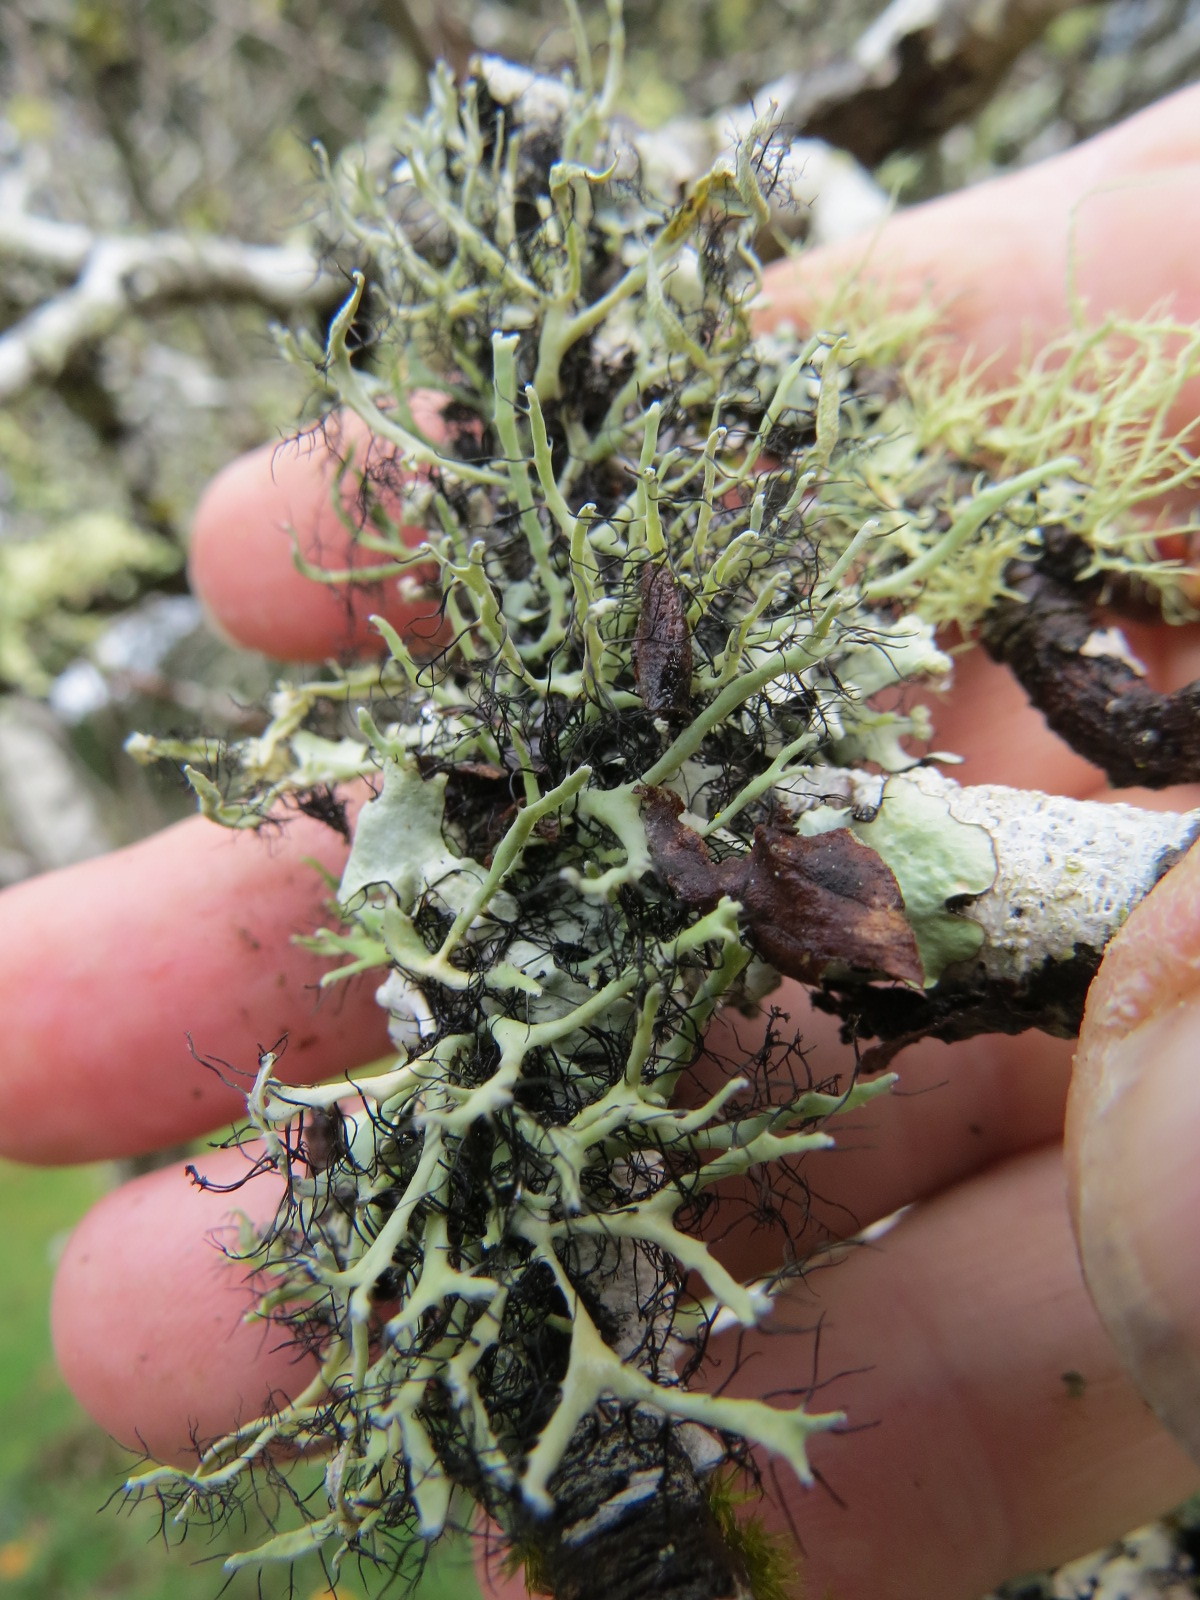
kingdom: Fungi
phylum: Ascomycota
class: Lecanoromycetes
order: Caliciales
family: Physciaceae
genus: Leucodermia
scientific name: Leucodermia leucomelos
